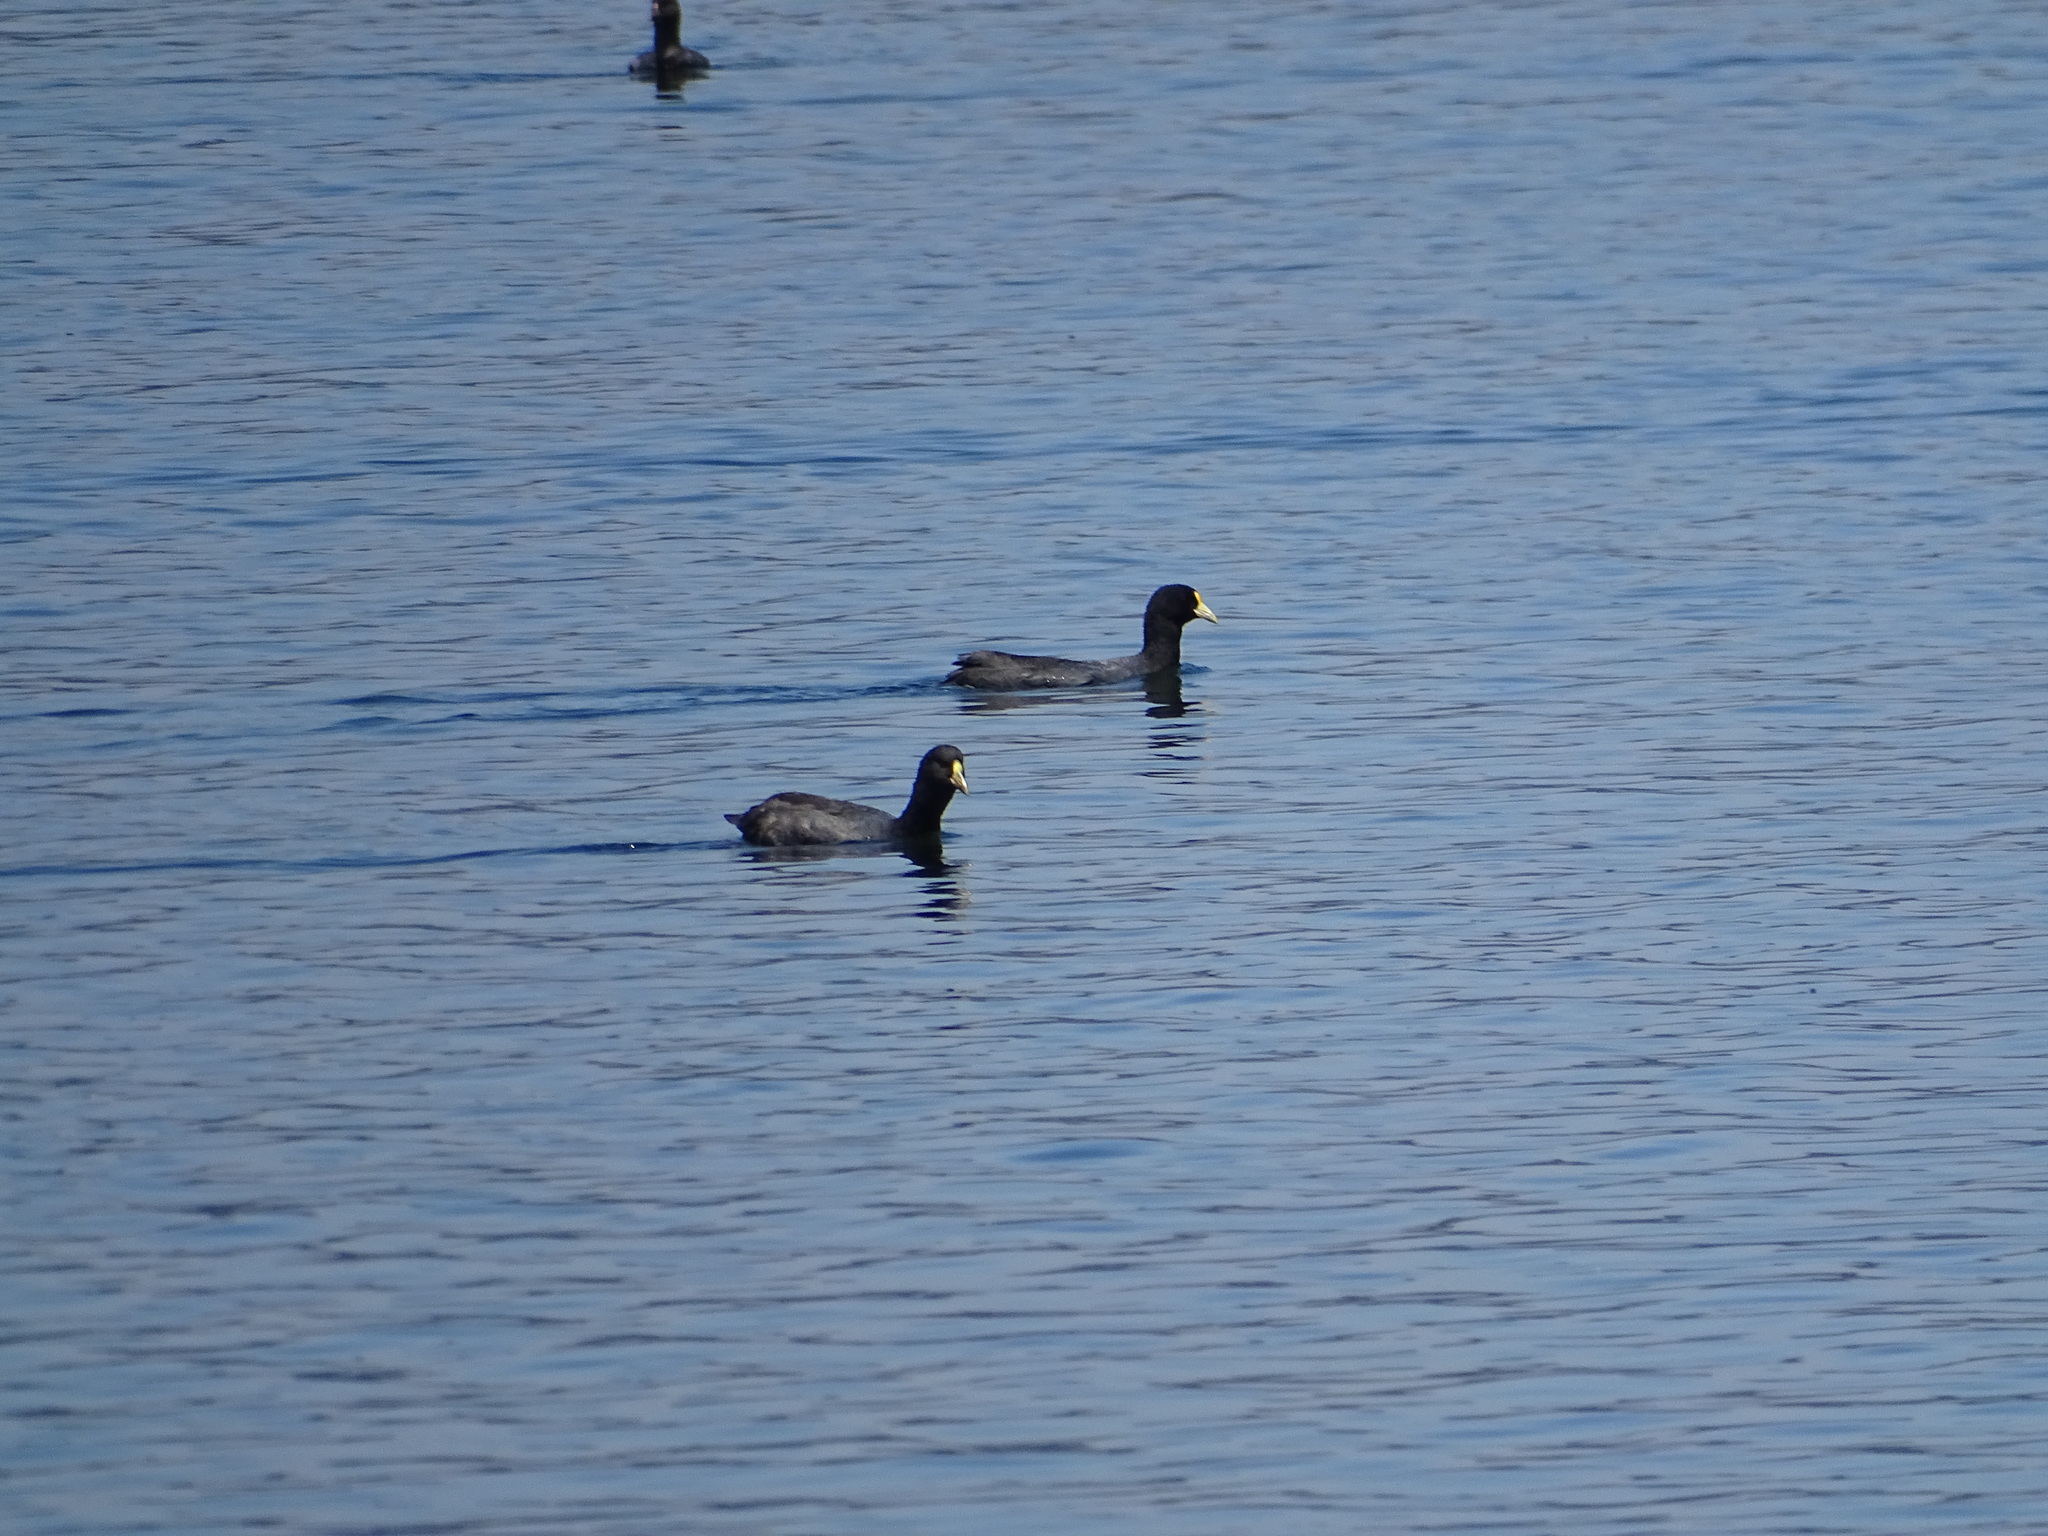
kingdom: Animalia
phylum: Chordata
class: Aves
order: Gruiformes
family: Rallidae
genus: Fulica
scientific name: Fulica leucoptera
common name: White-winged coot
